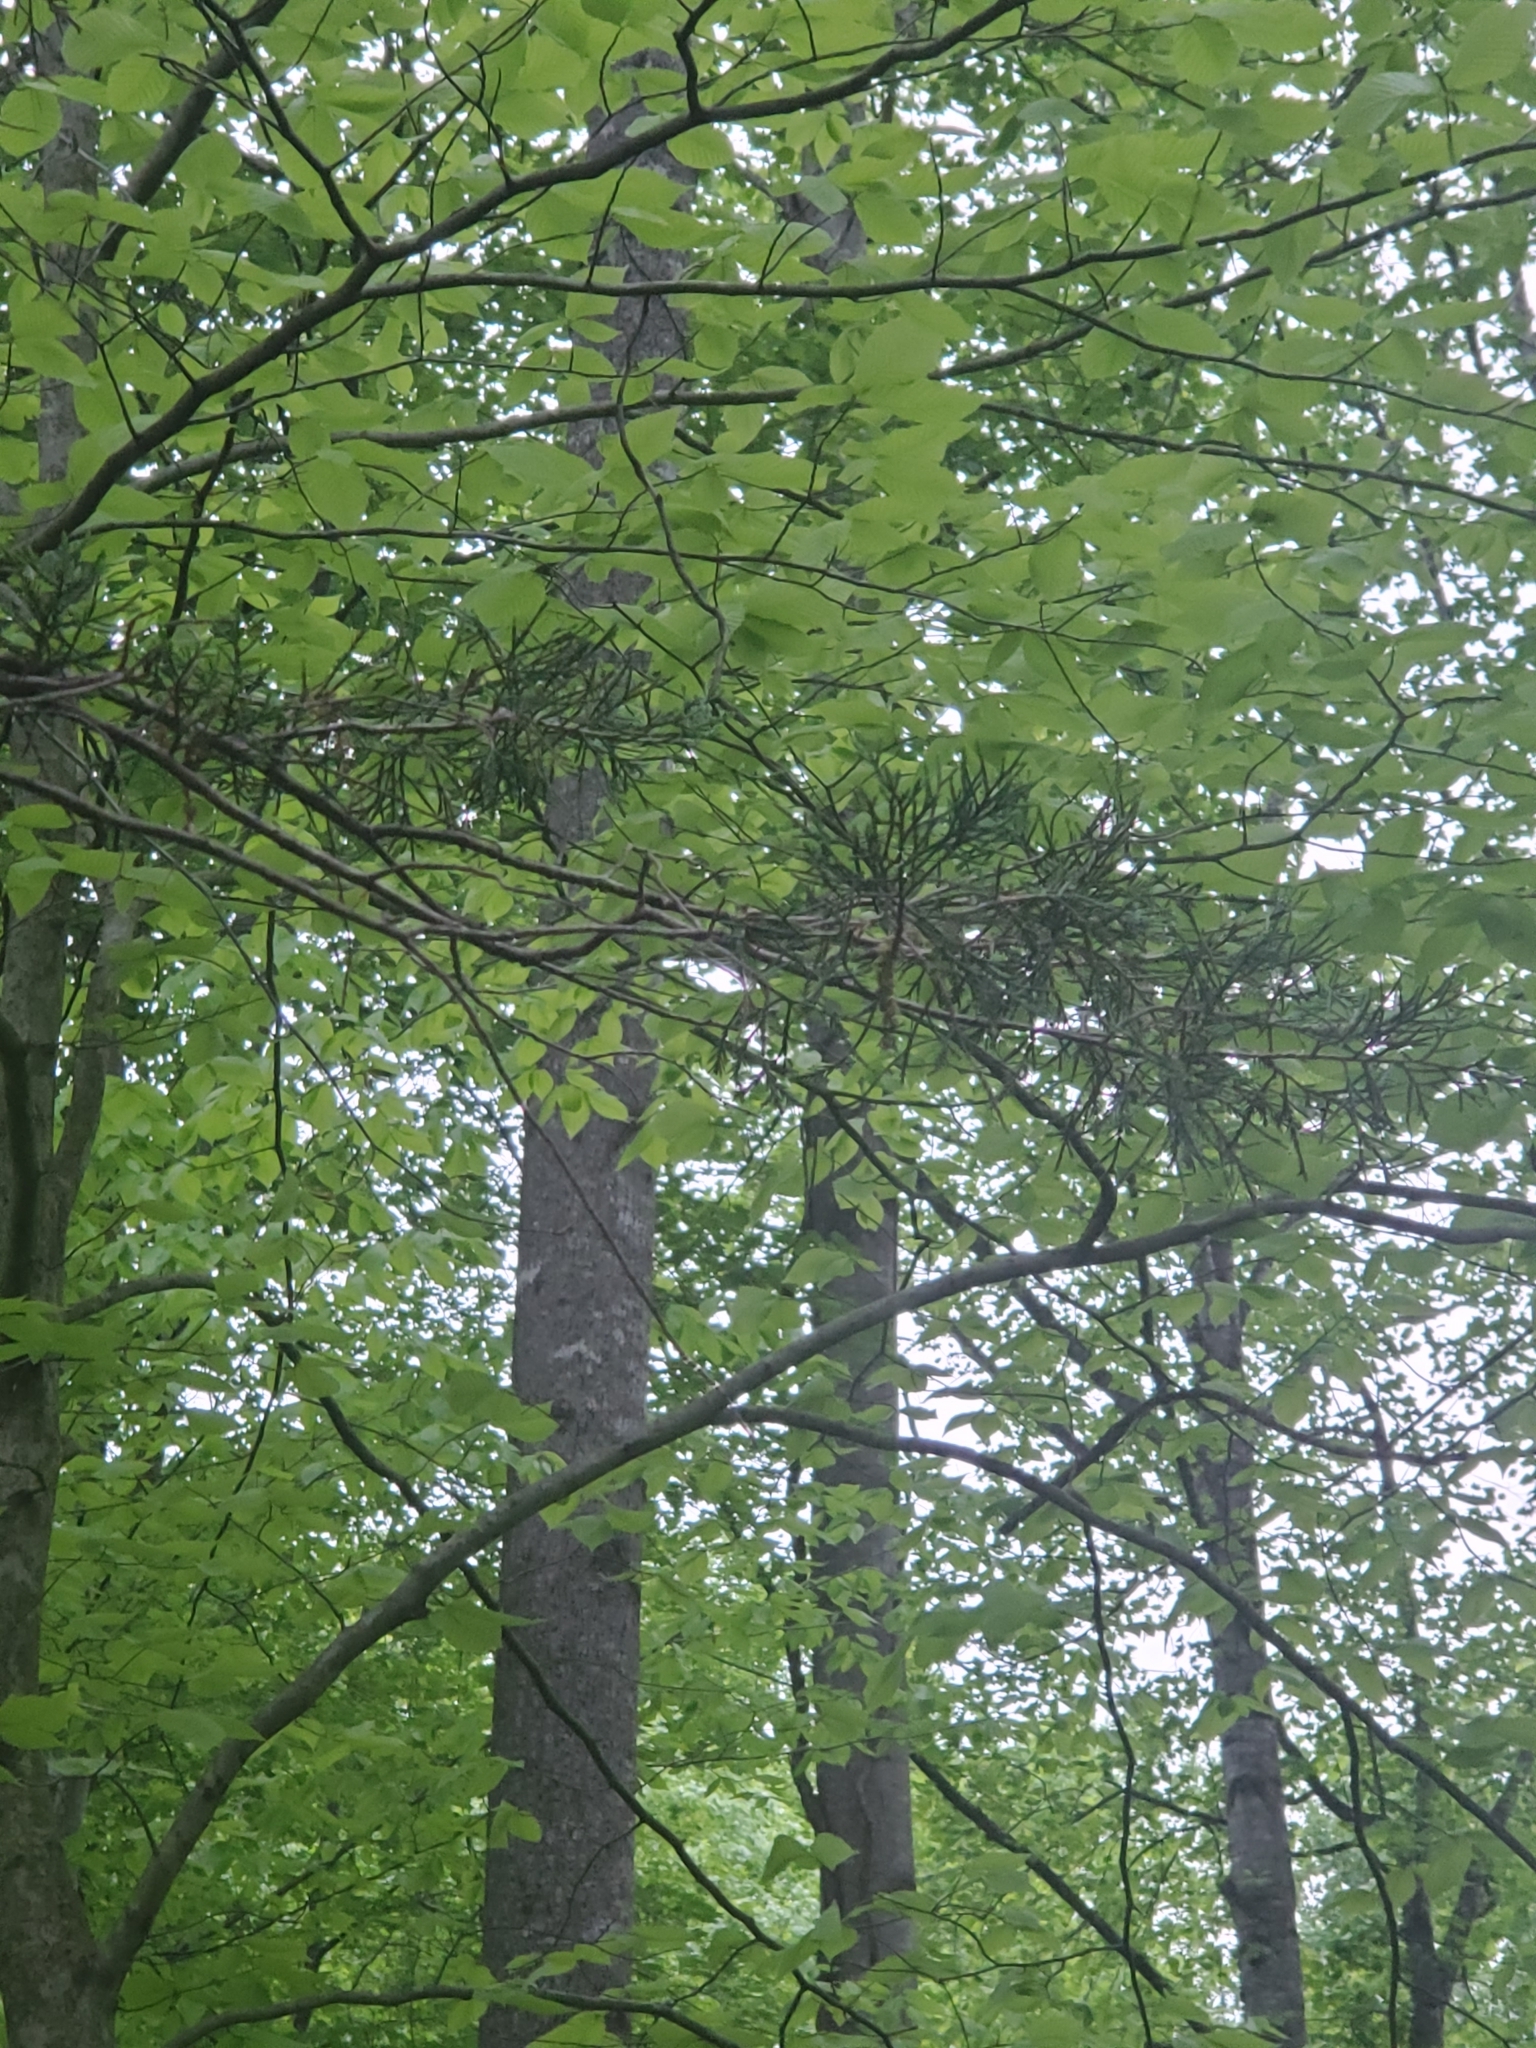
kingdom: Plantae
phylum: Tracheophyta
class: Pinopsida
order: Pinales
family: Cupressaceae
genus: Juniperus
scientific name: Juniperus virginiana
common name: Red juniper
